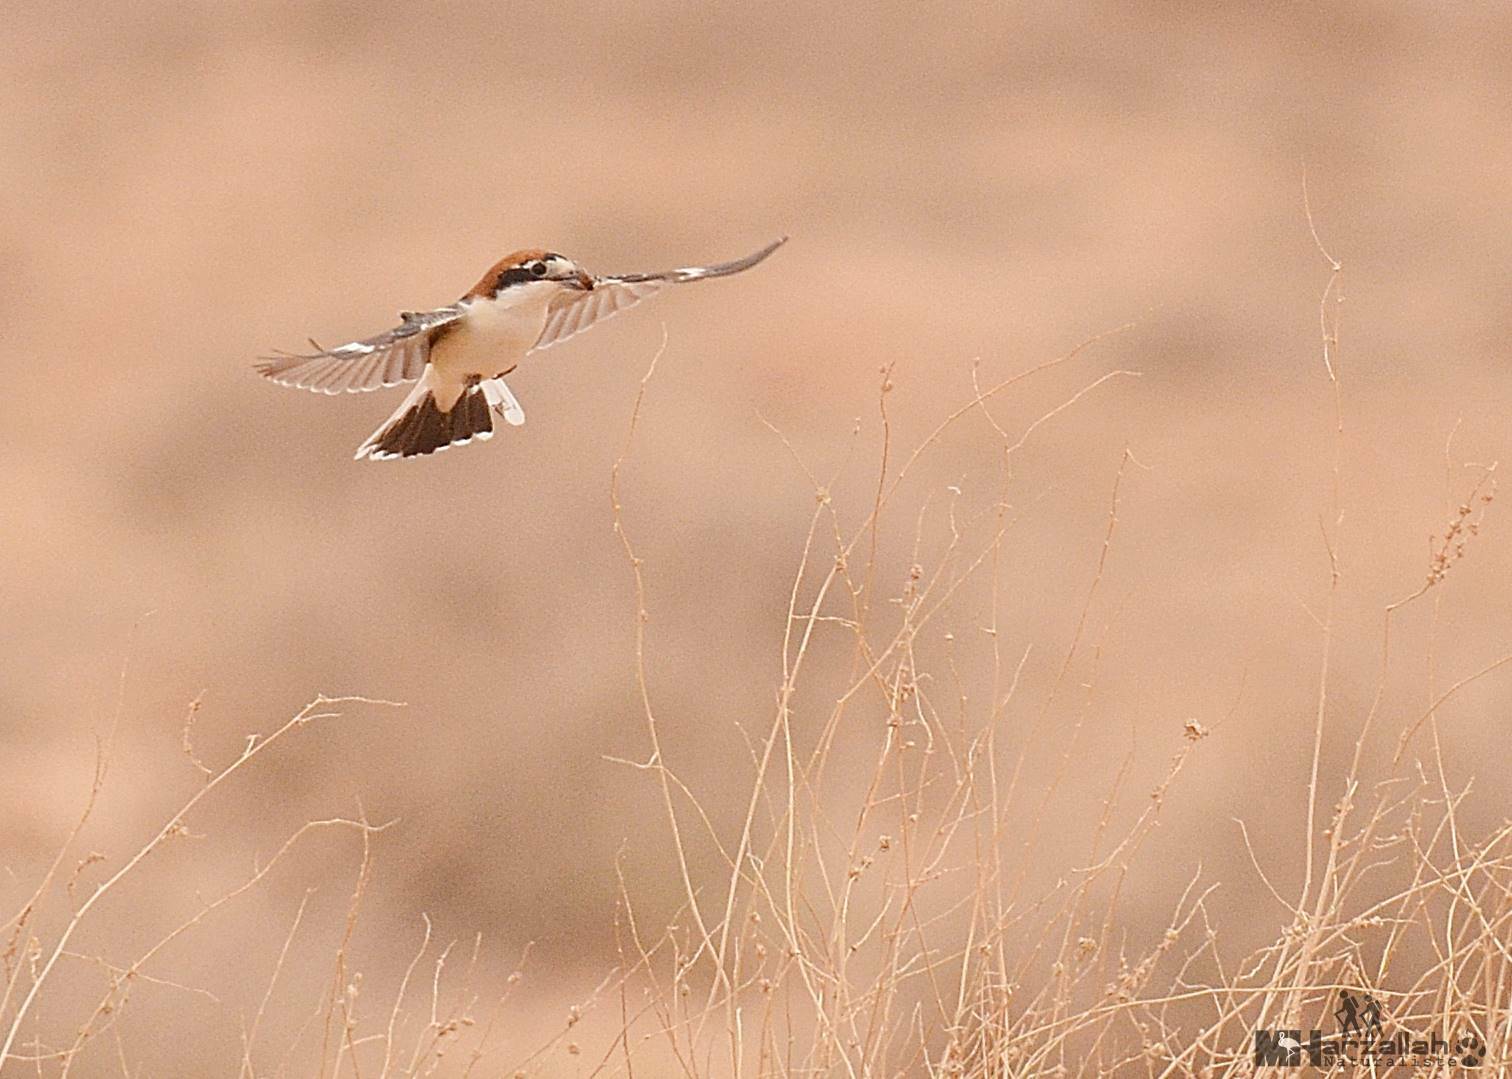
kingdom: Animalia
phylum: Chordata
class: Aves
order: Passeriformes
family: Laniidae
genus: Lanius
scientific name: Lanius senator
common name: Woodchat shrike
